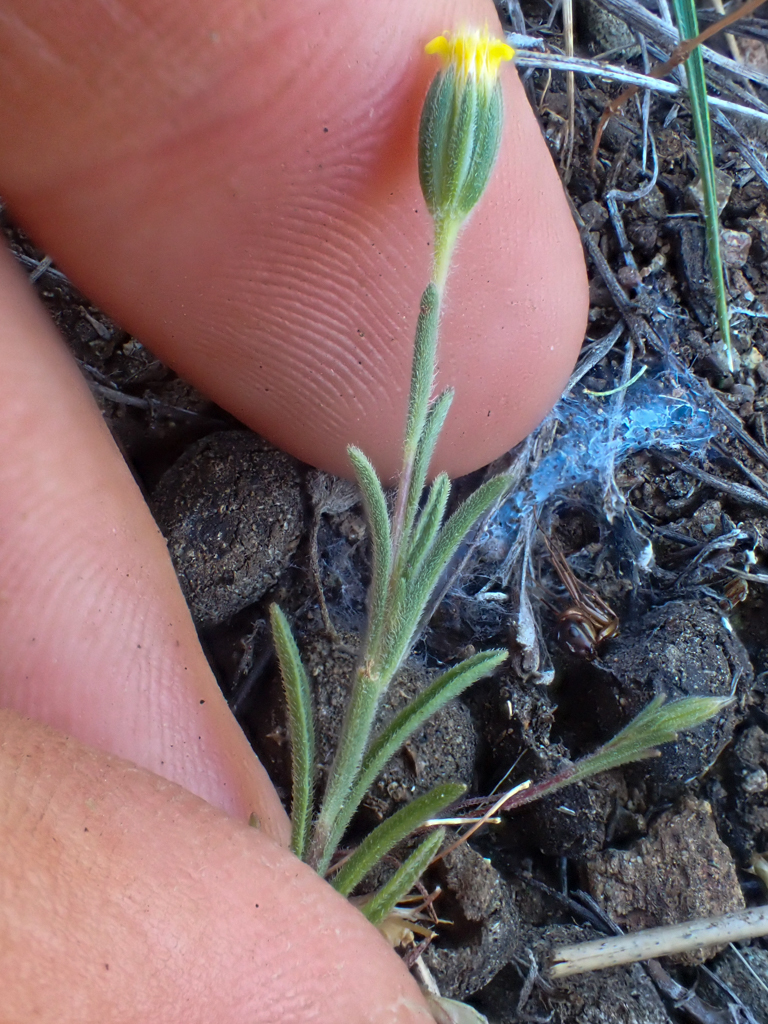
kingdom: Plantae
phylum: Tracheophyta
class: Magnoliopsida
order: Asterales
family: Asteraceae
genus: Rigiopappus
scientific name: Rigiopappus leptocladus
